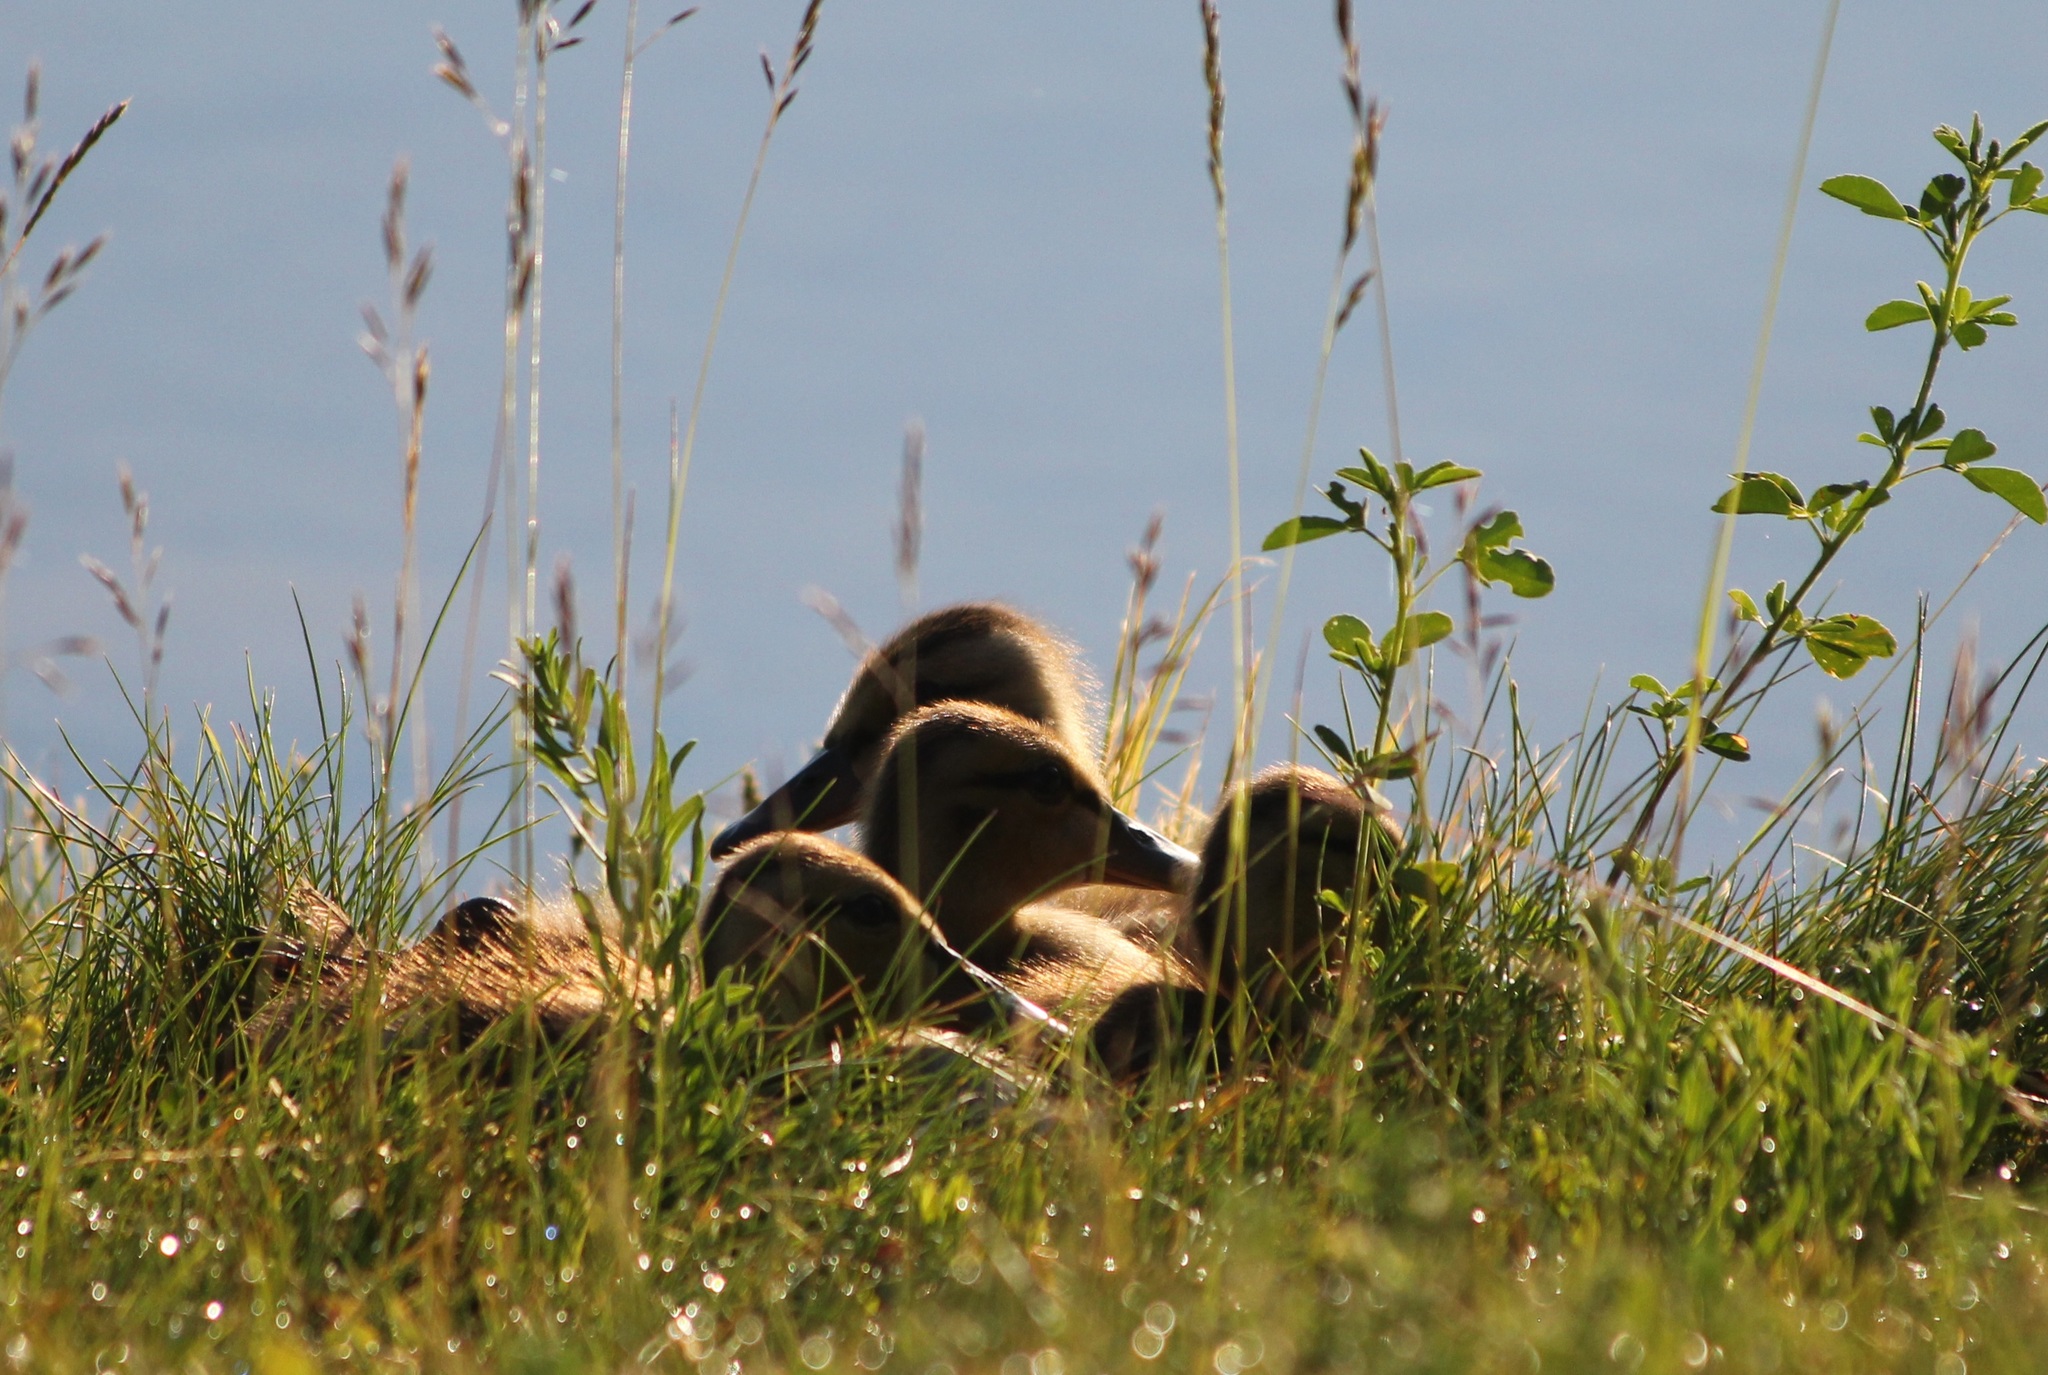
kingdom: Animalia
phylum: Chordata
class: Aves
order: Anseriformes
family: Anatidae
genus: Anas
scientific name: Anas platyrhynchos
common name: Mallard
